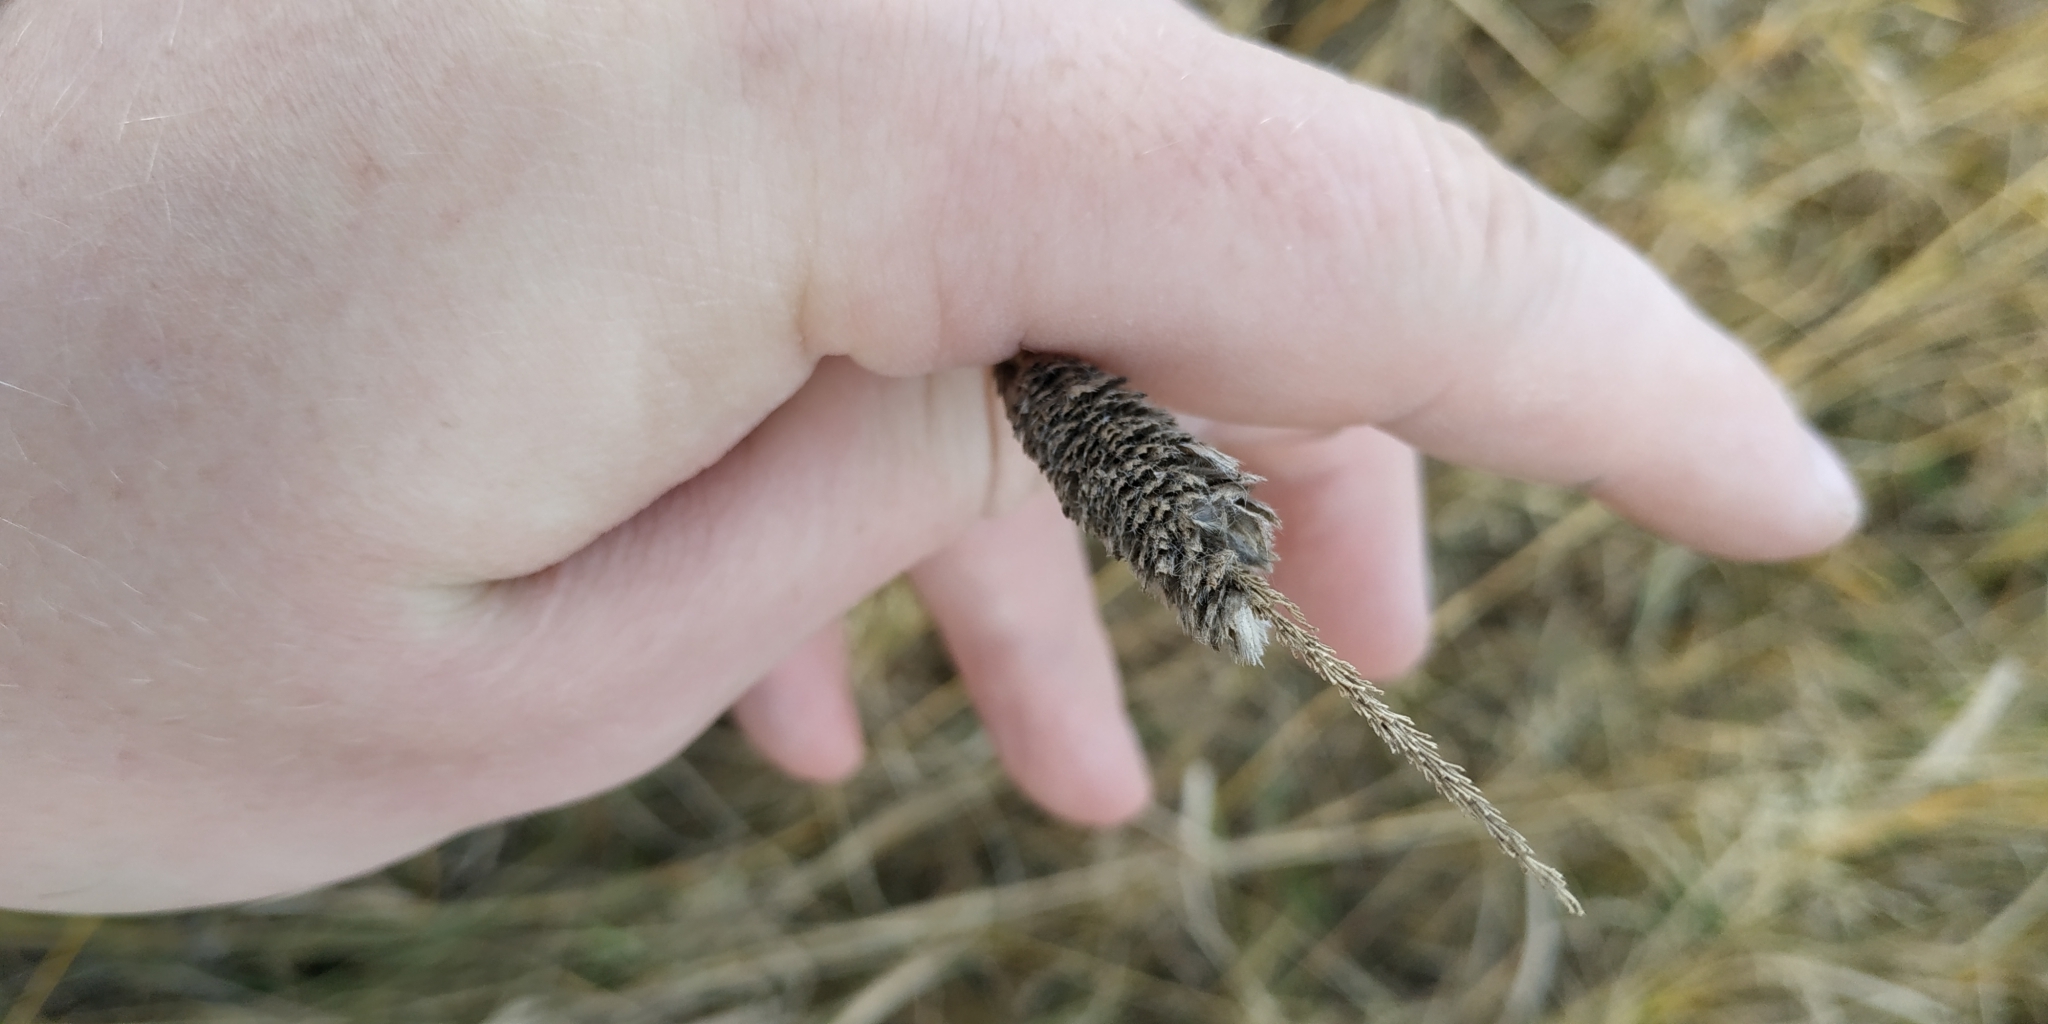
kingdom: Plantae
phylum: Tracheophyta
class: Liliopsida
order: Poales
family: Poaceae
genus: Alopecurus
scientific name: Alopecurus pratensis
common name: Meadow foxtail
